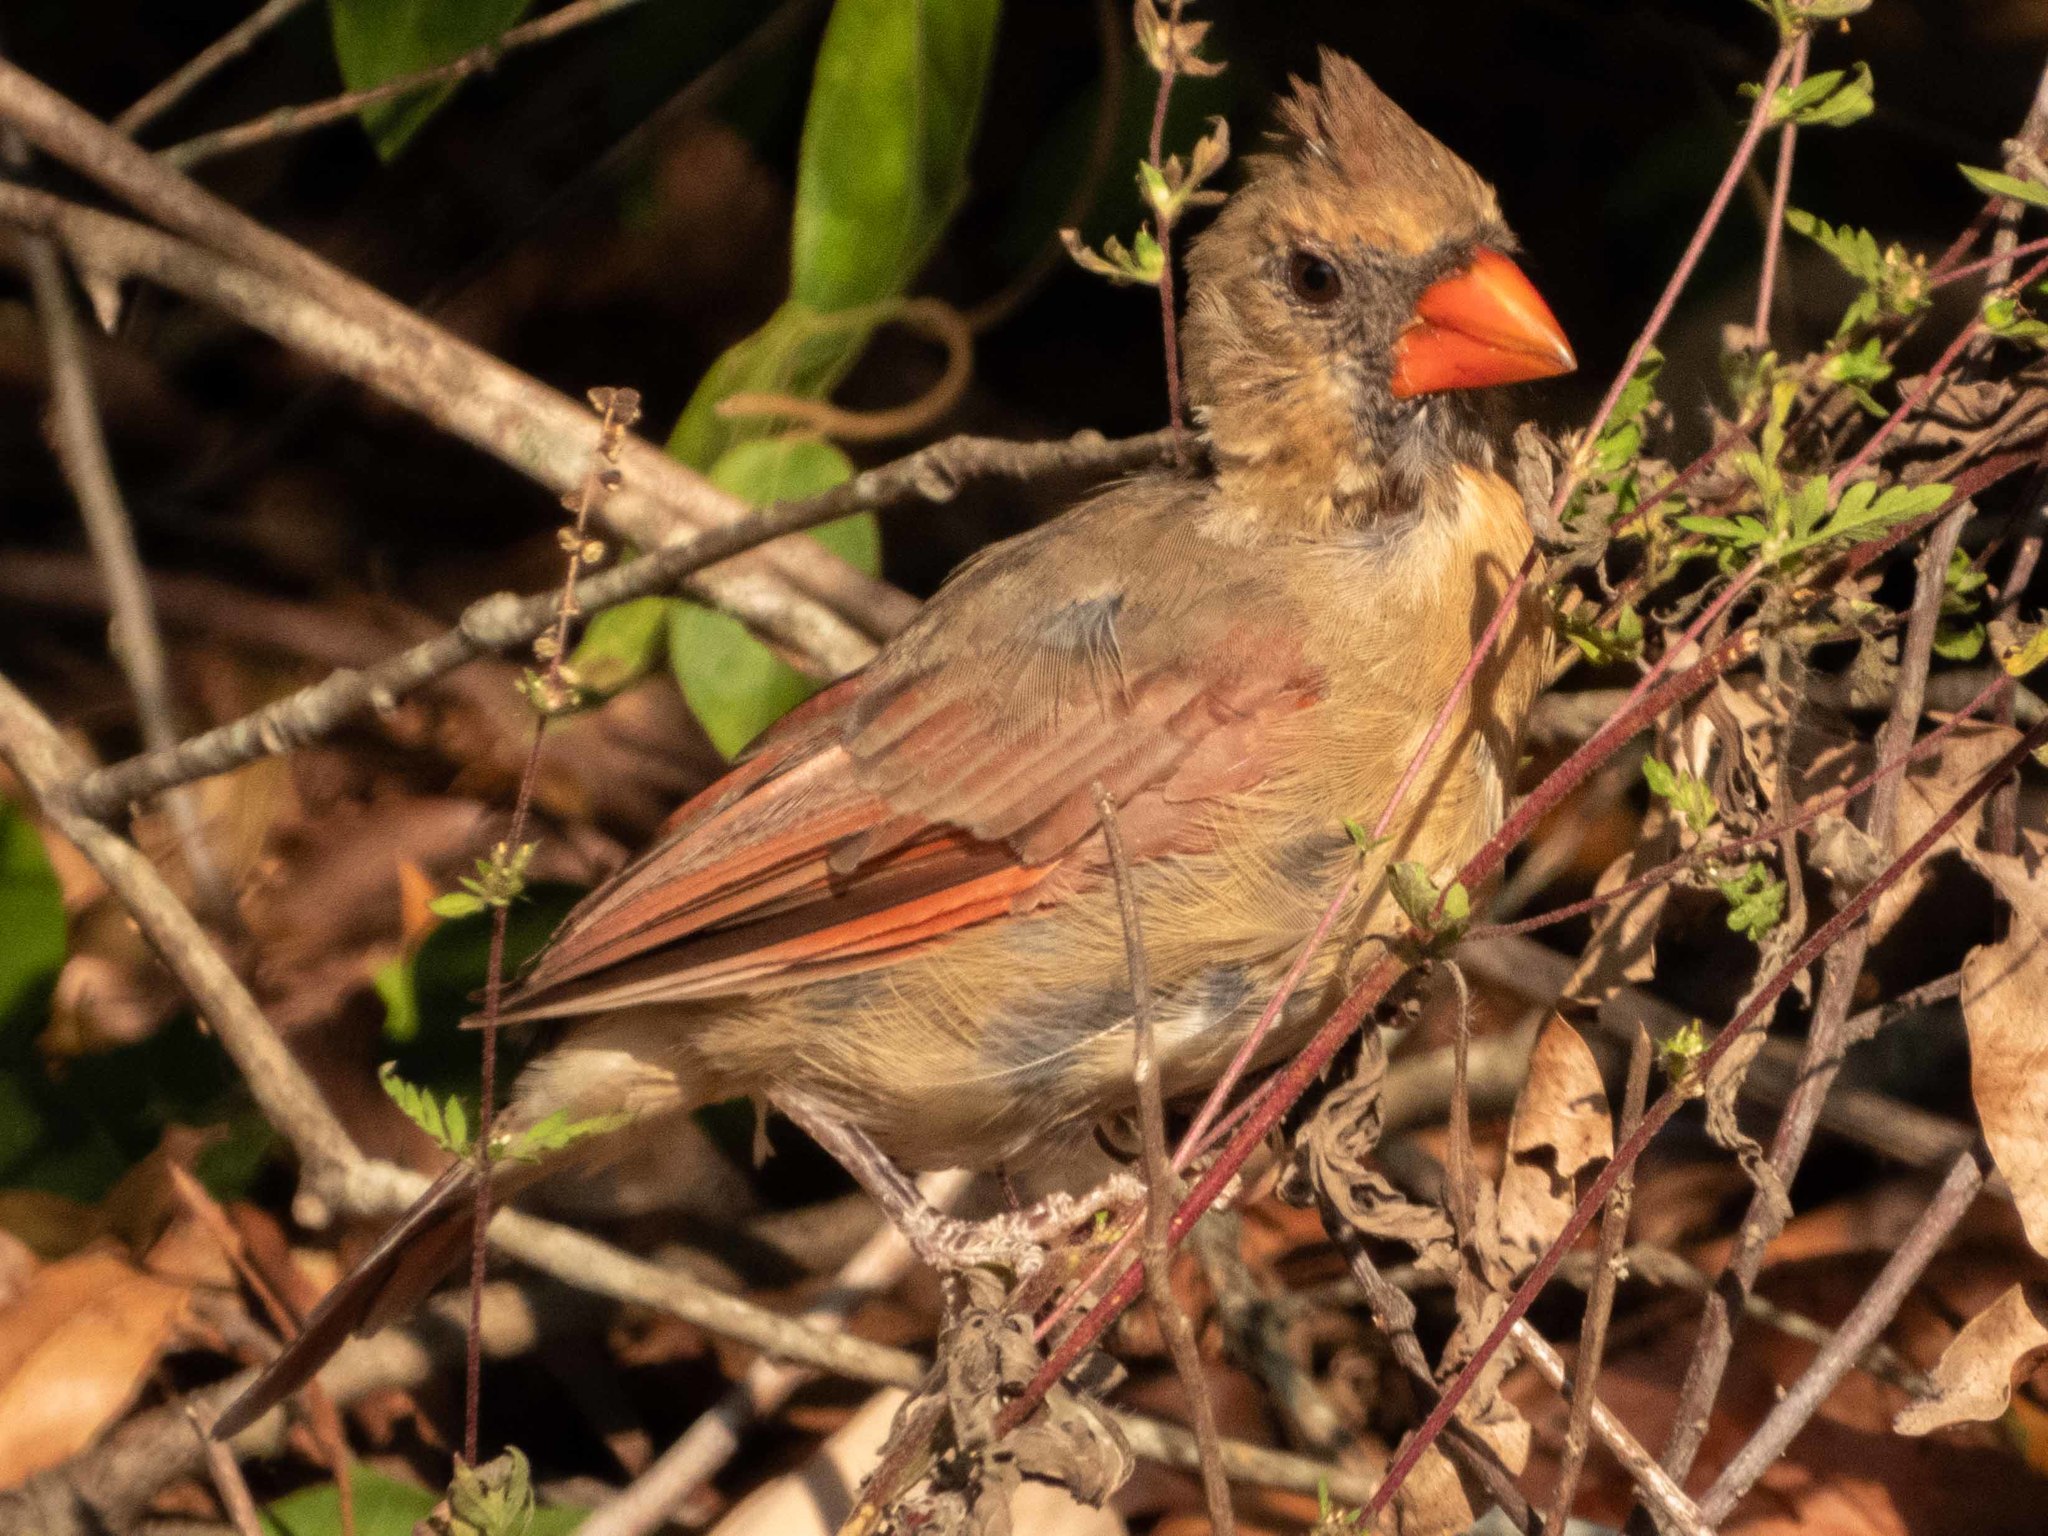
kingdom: Animalia
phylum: Chordata
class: Aves
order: Passeriformes
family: Cardinalidae
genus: Cardinalis
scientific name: Cardinalis cardinalis
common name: Northern cardinal
